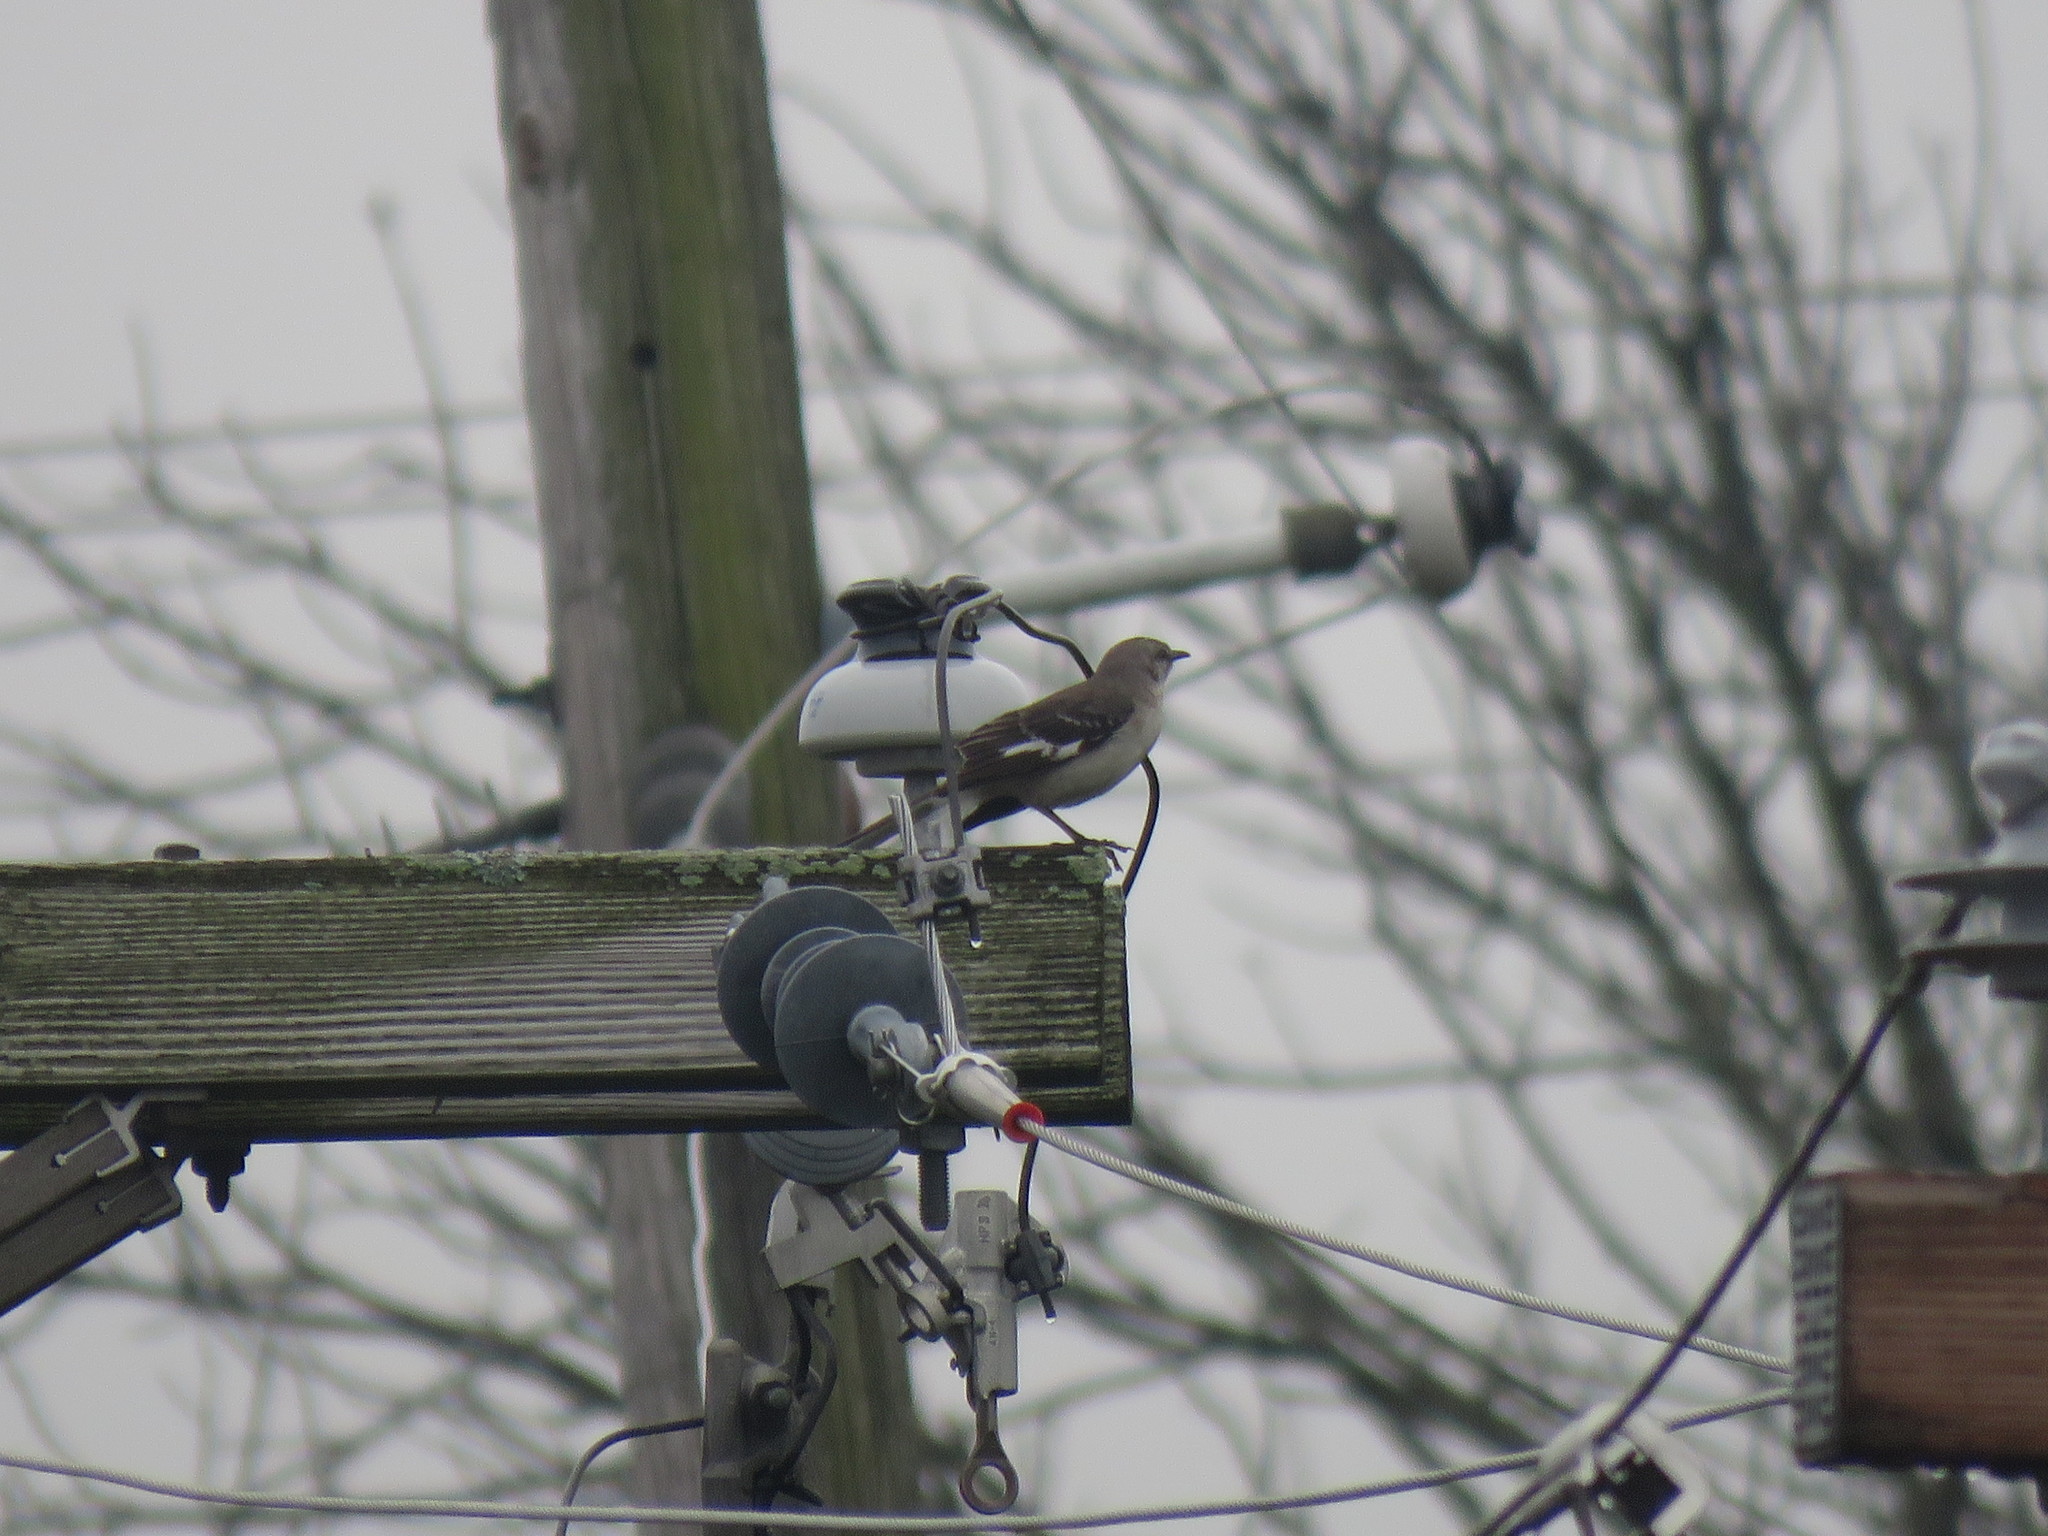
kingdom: Animalia
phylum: Chordata
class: Aves
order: Passeriformes
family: Mimidae
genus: Mimus
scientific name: Mimus polyglottos
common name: Northern mockingbird
